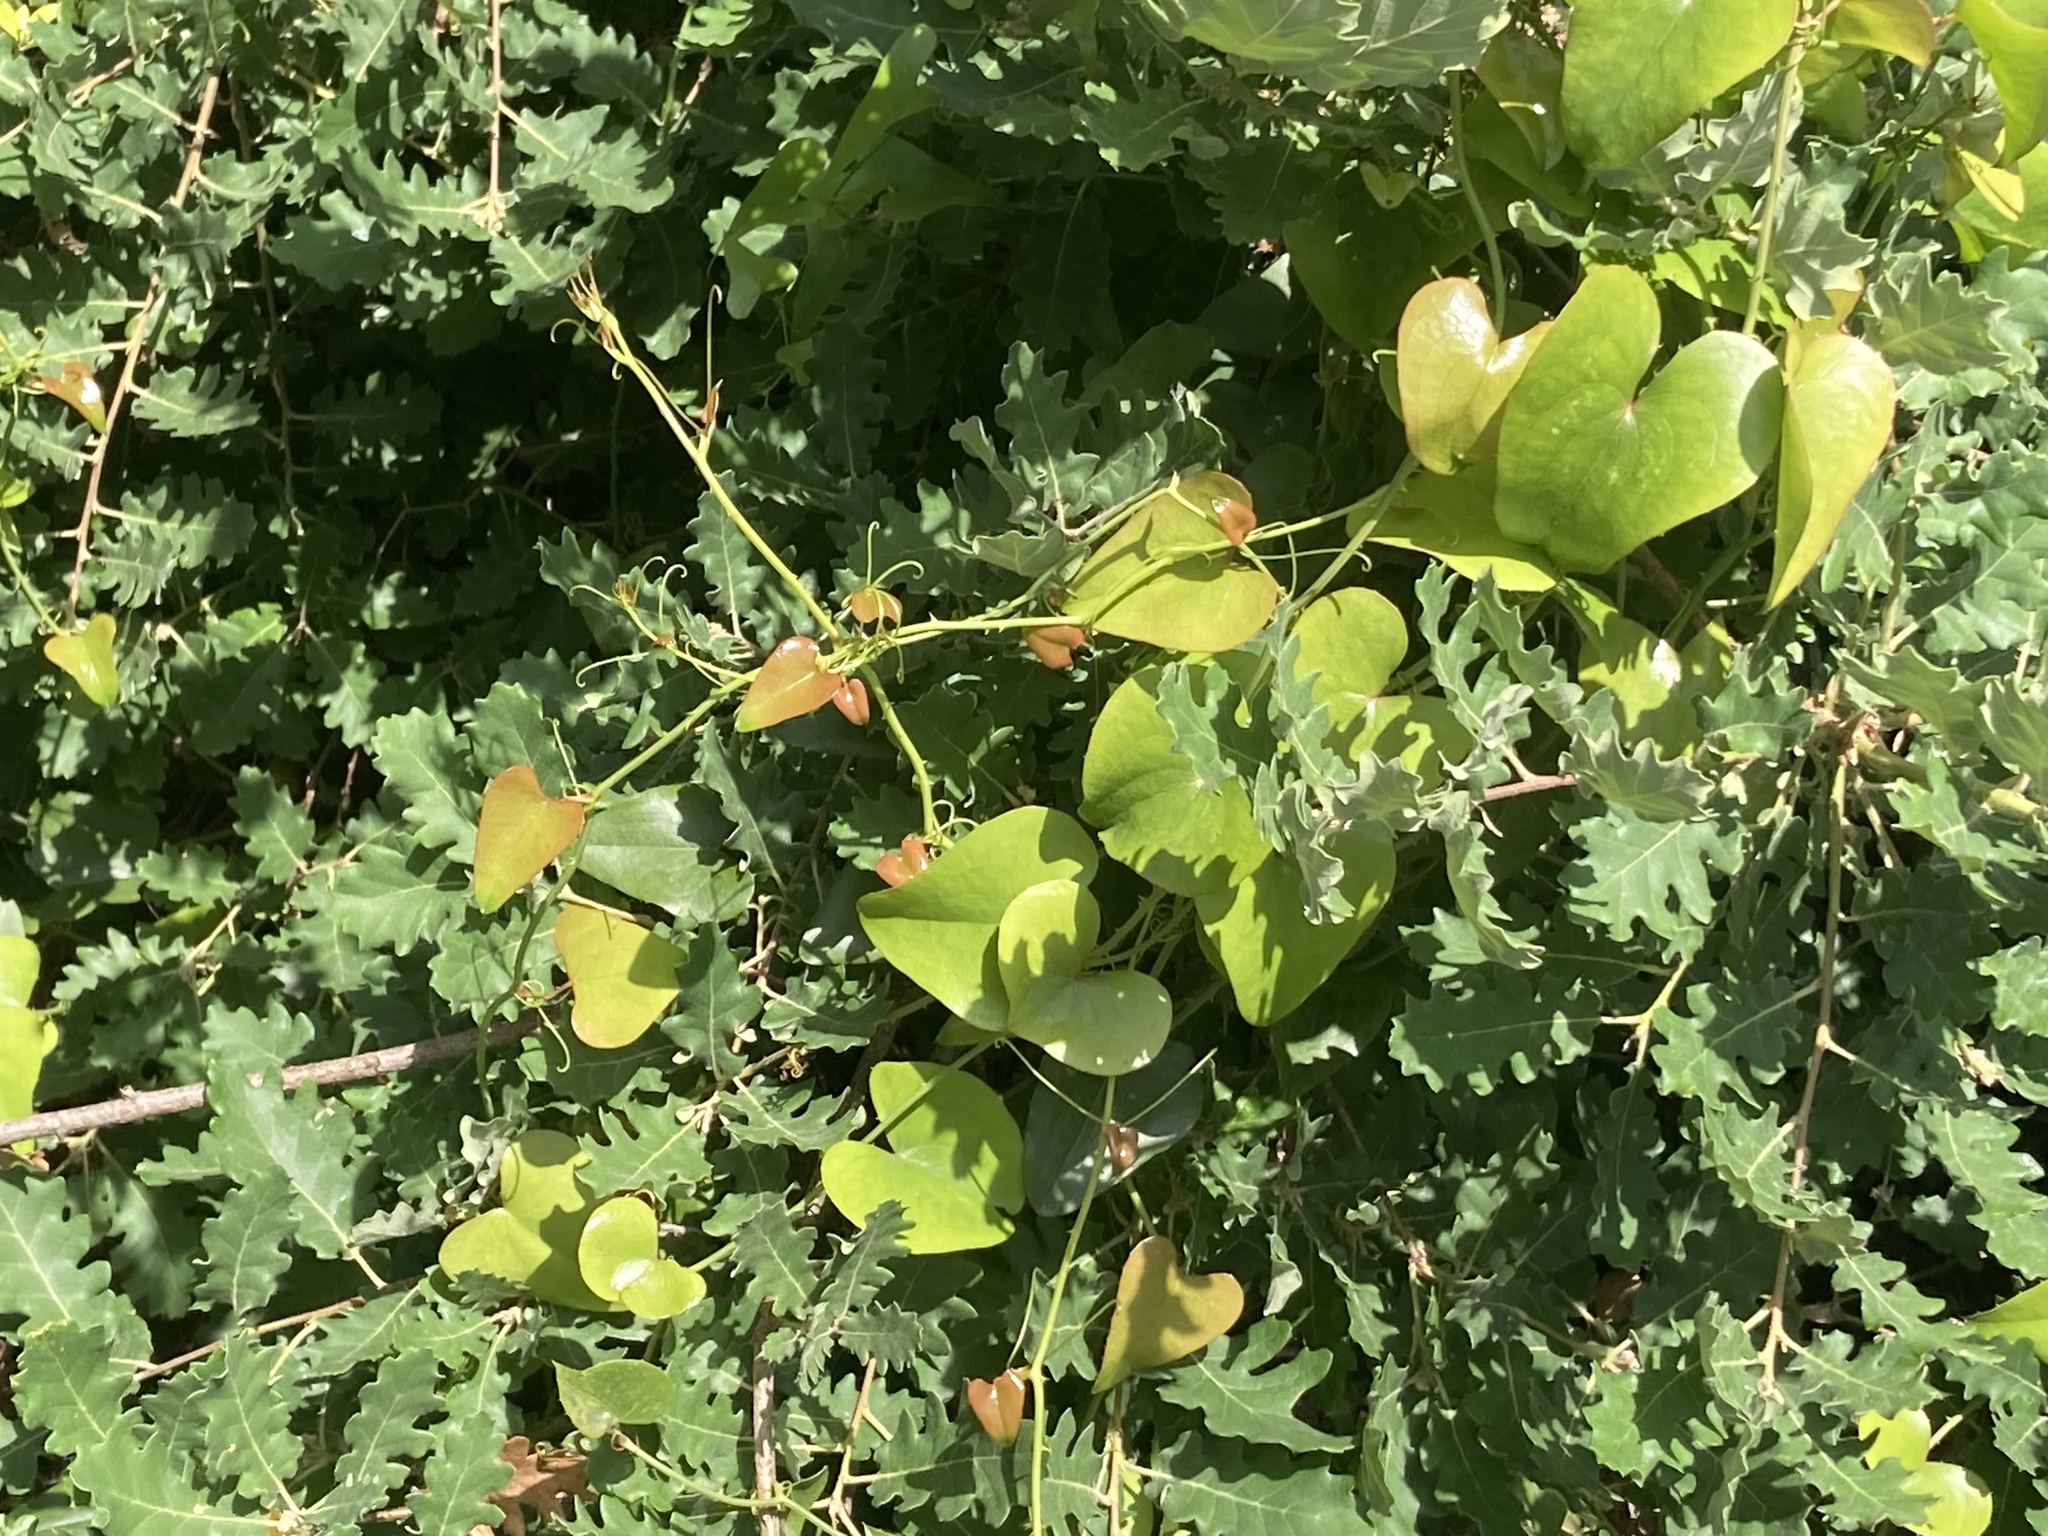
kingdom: Plantae
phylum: Tracheophyta
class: Liliopsida
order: Liliales
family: Smilacaceae
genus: Smilax
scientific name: Smilax aspera
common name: Common smilax
